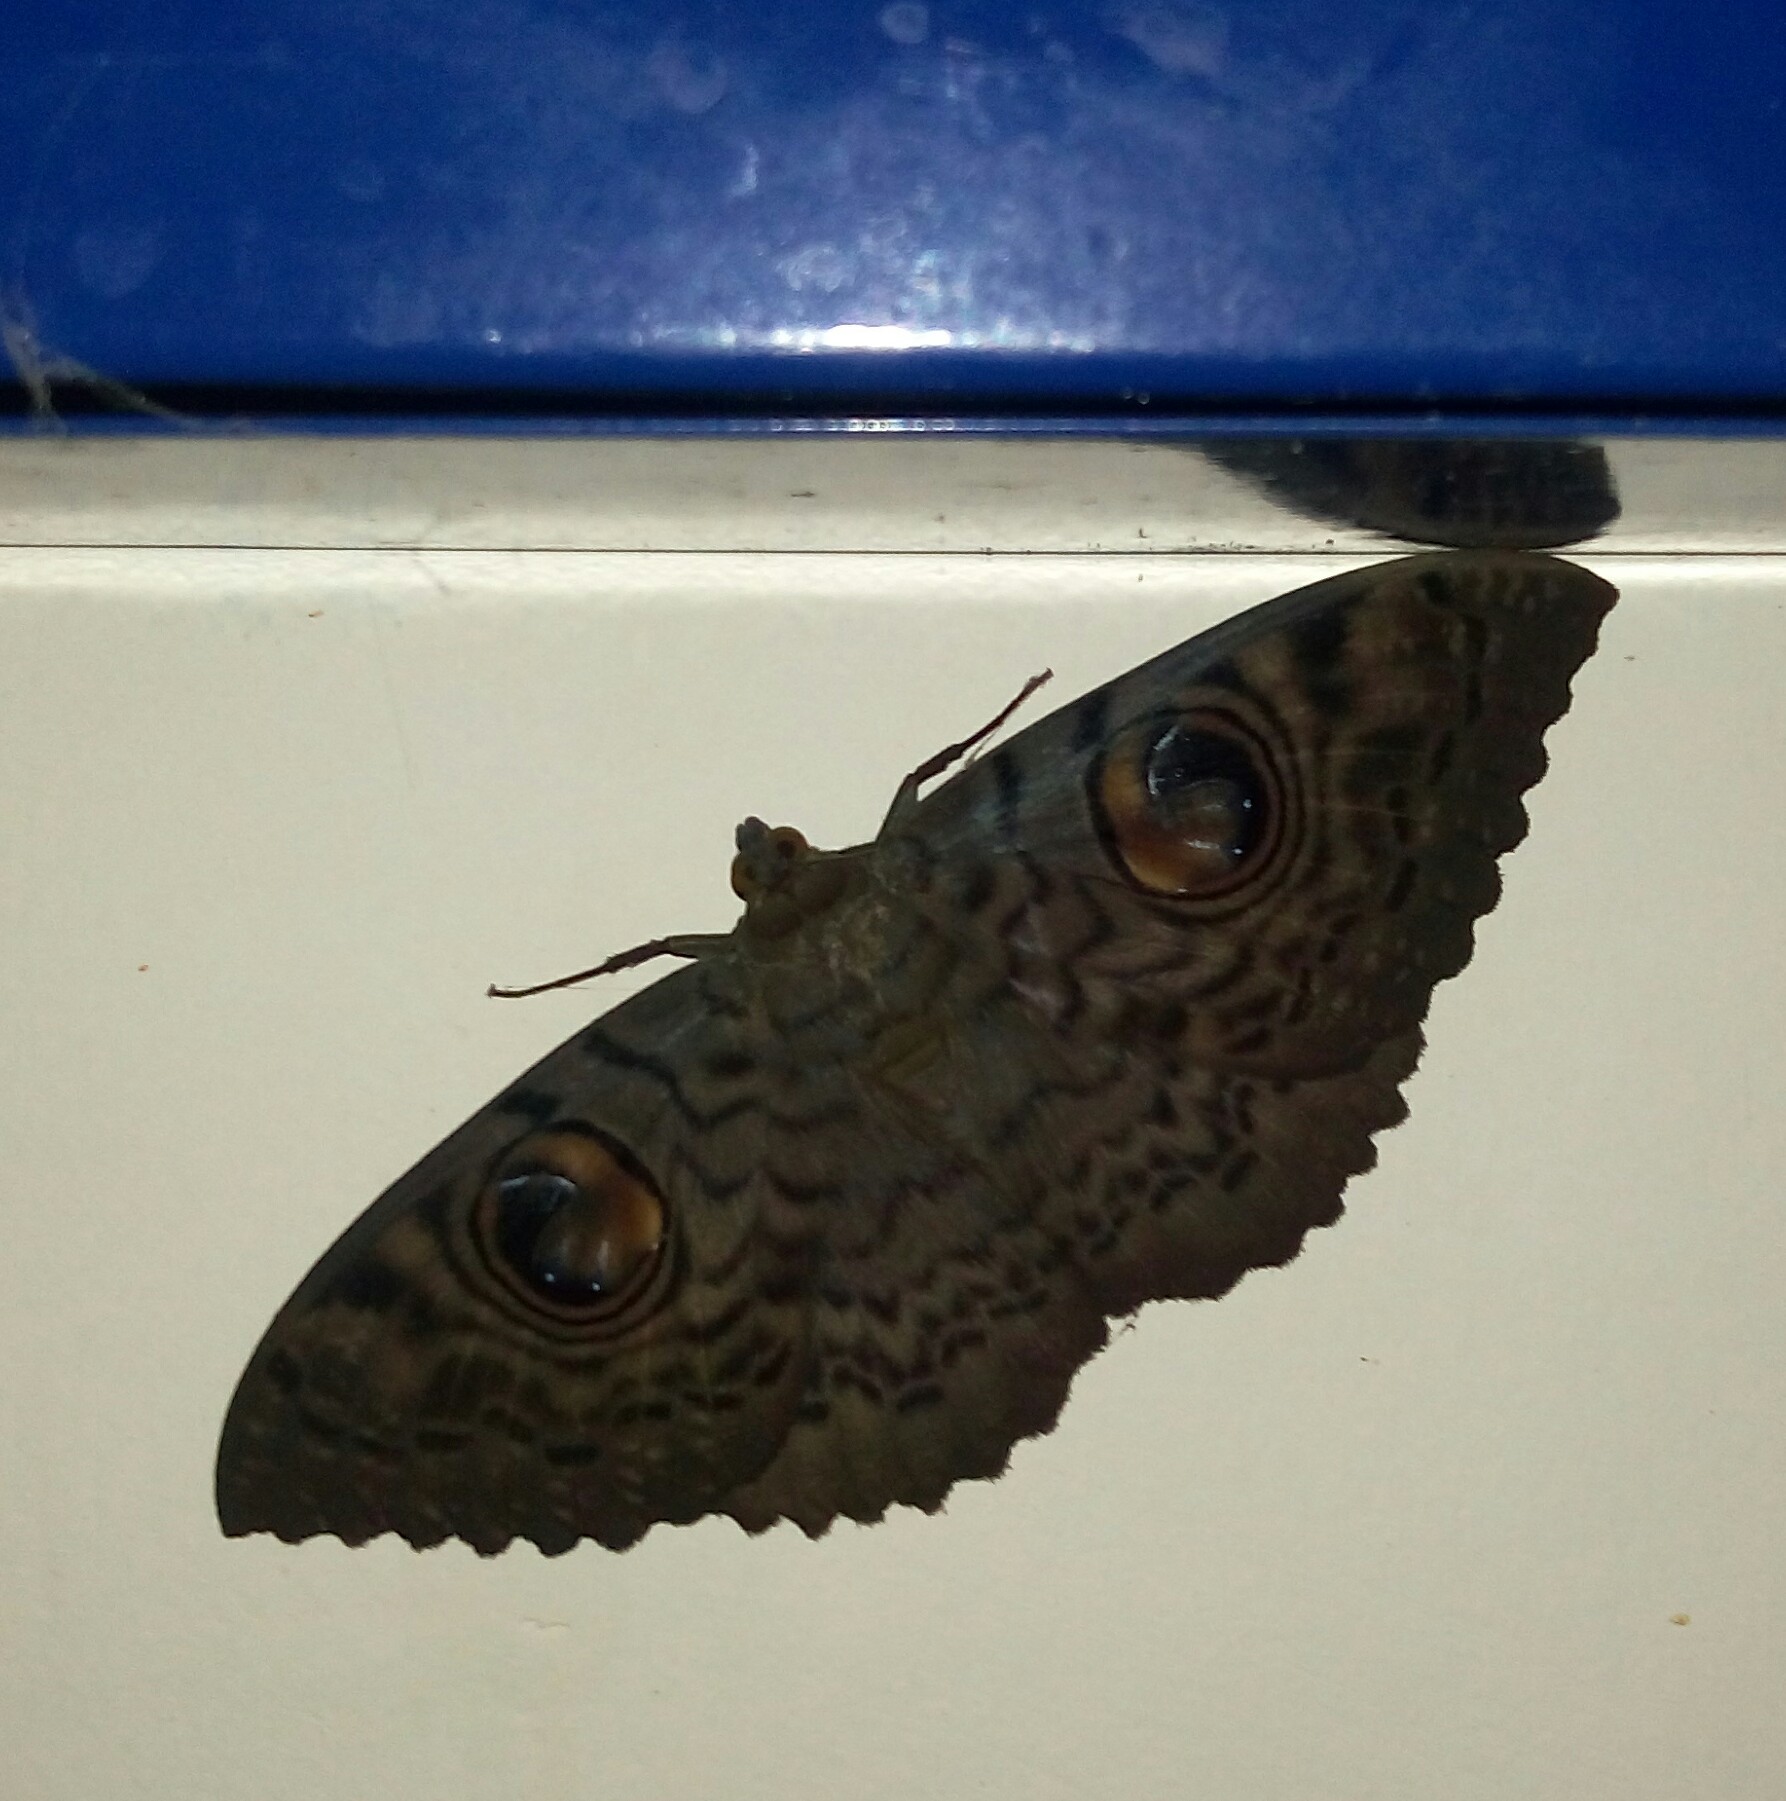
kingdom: Animalia
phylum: Arthropoda
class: Insecta
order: Lepidoptera
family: Erebidae
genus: Erebus
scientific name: Erebus macrops
